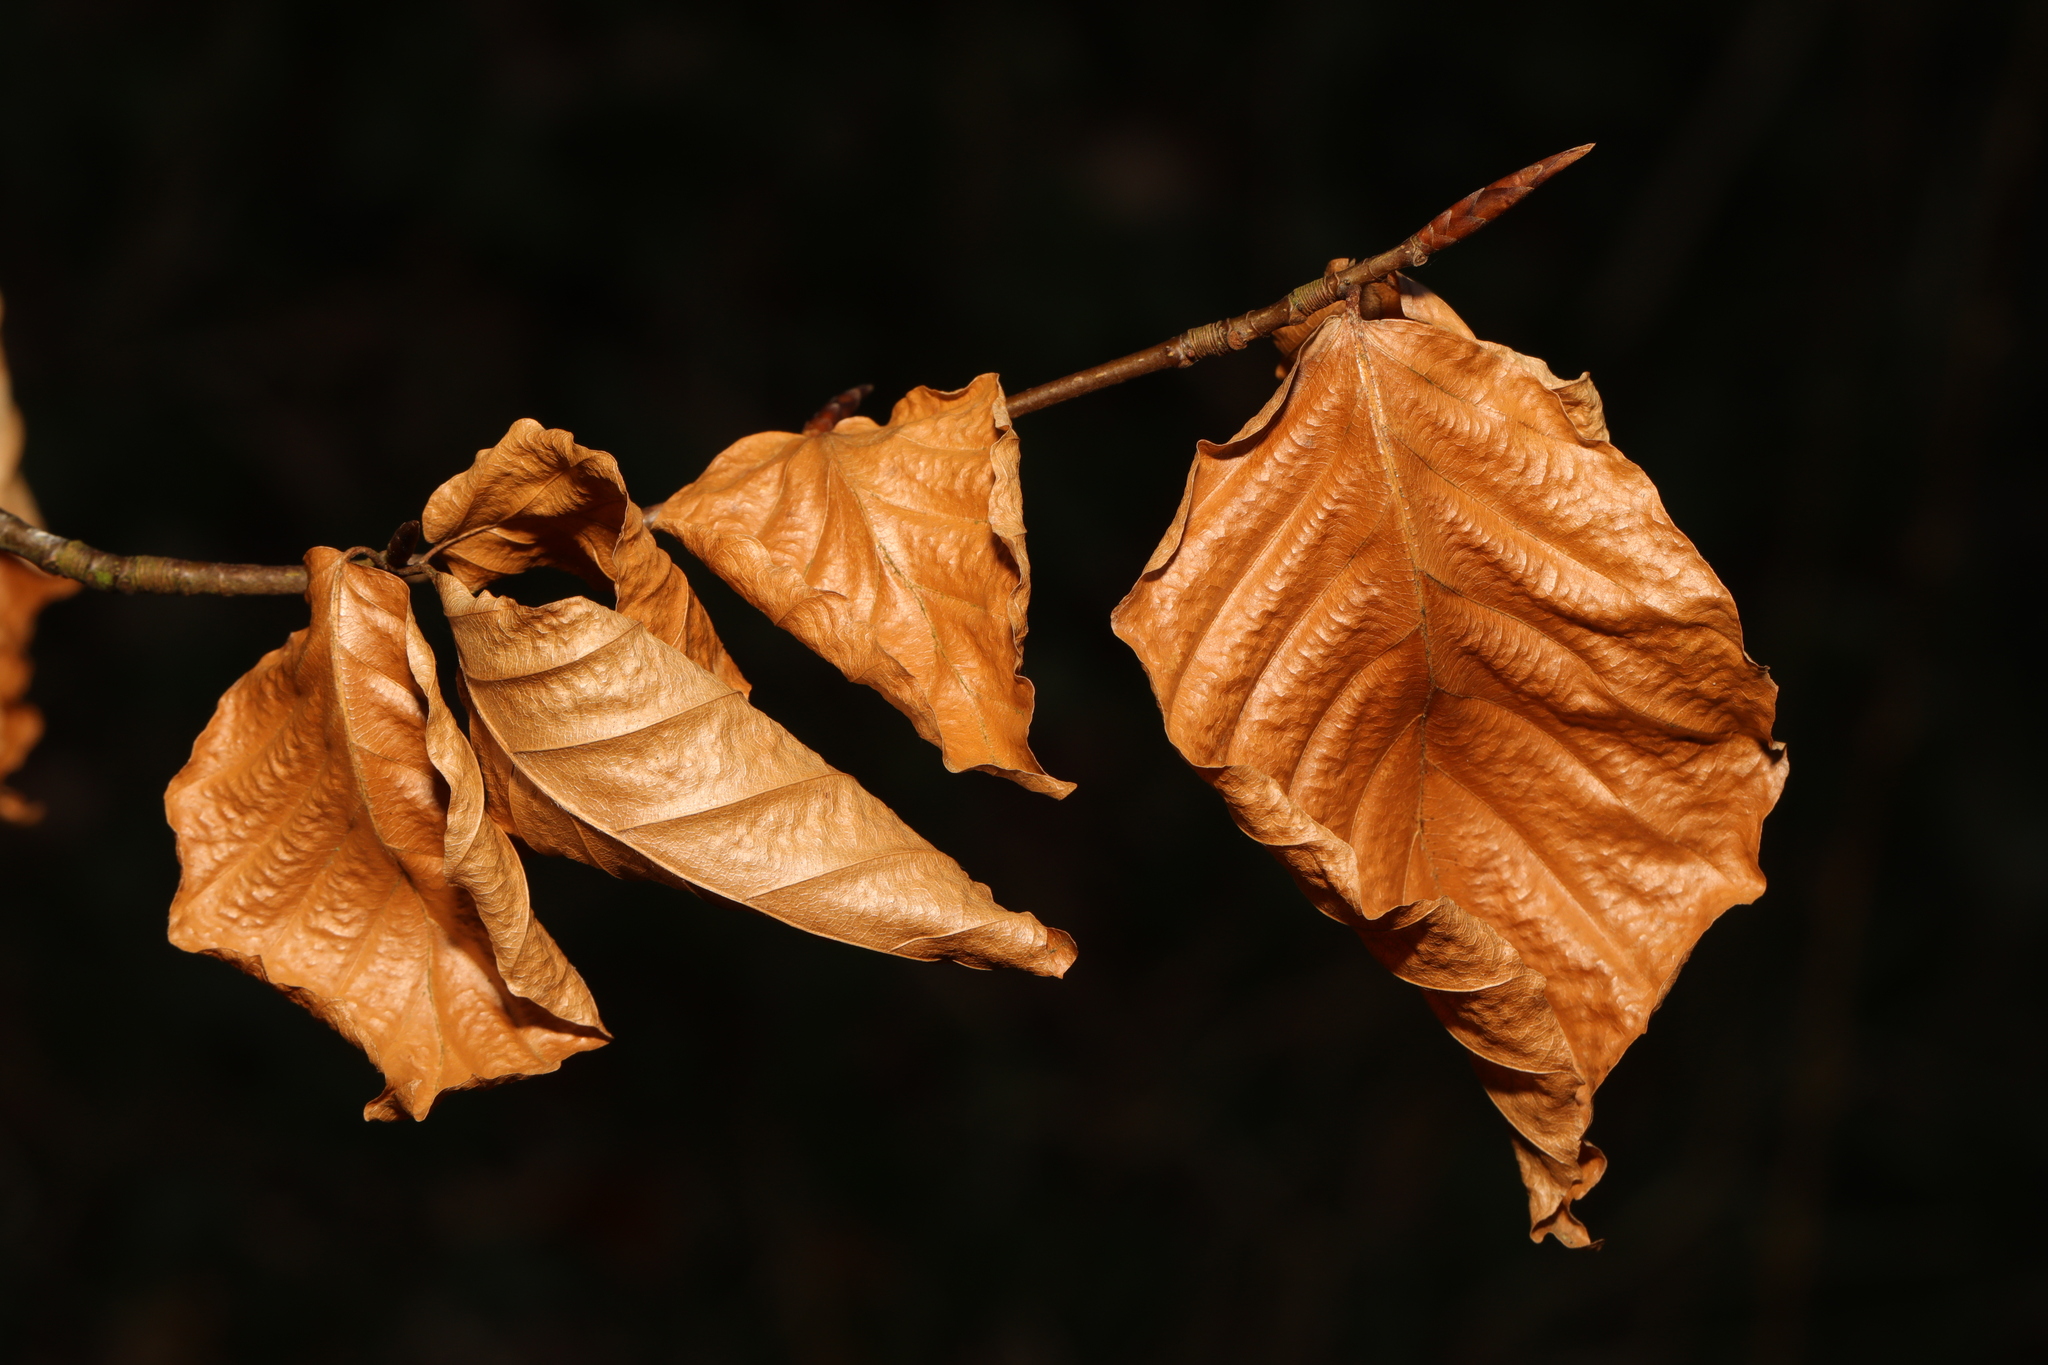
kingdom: Plantae
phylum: Tracheophyta
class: Magnoliopsida
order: Fagales
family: Fagaceae
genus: Fagus
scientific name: Fagus sylvatica
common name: Beech
